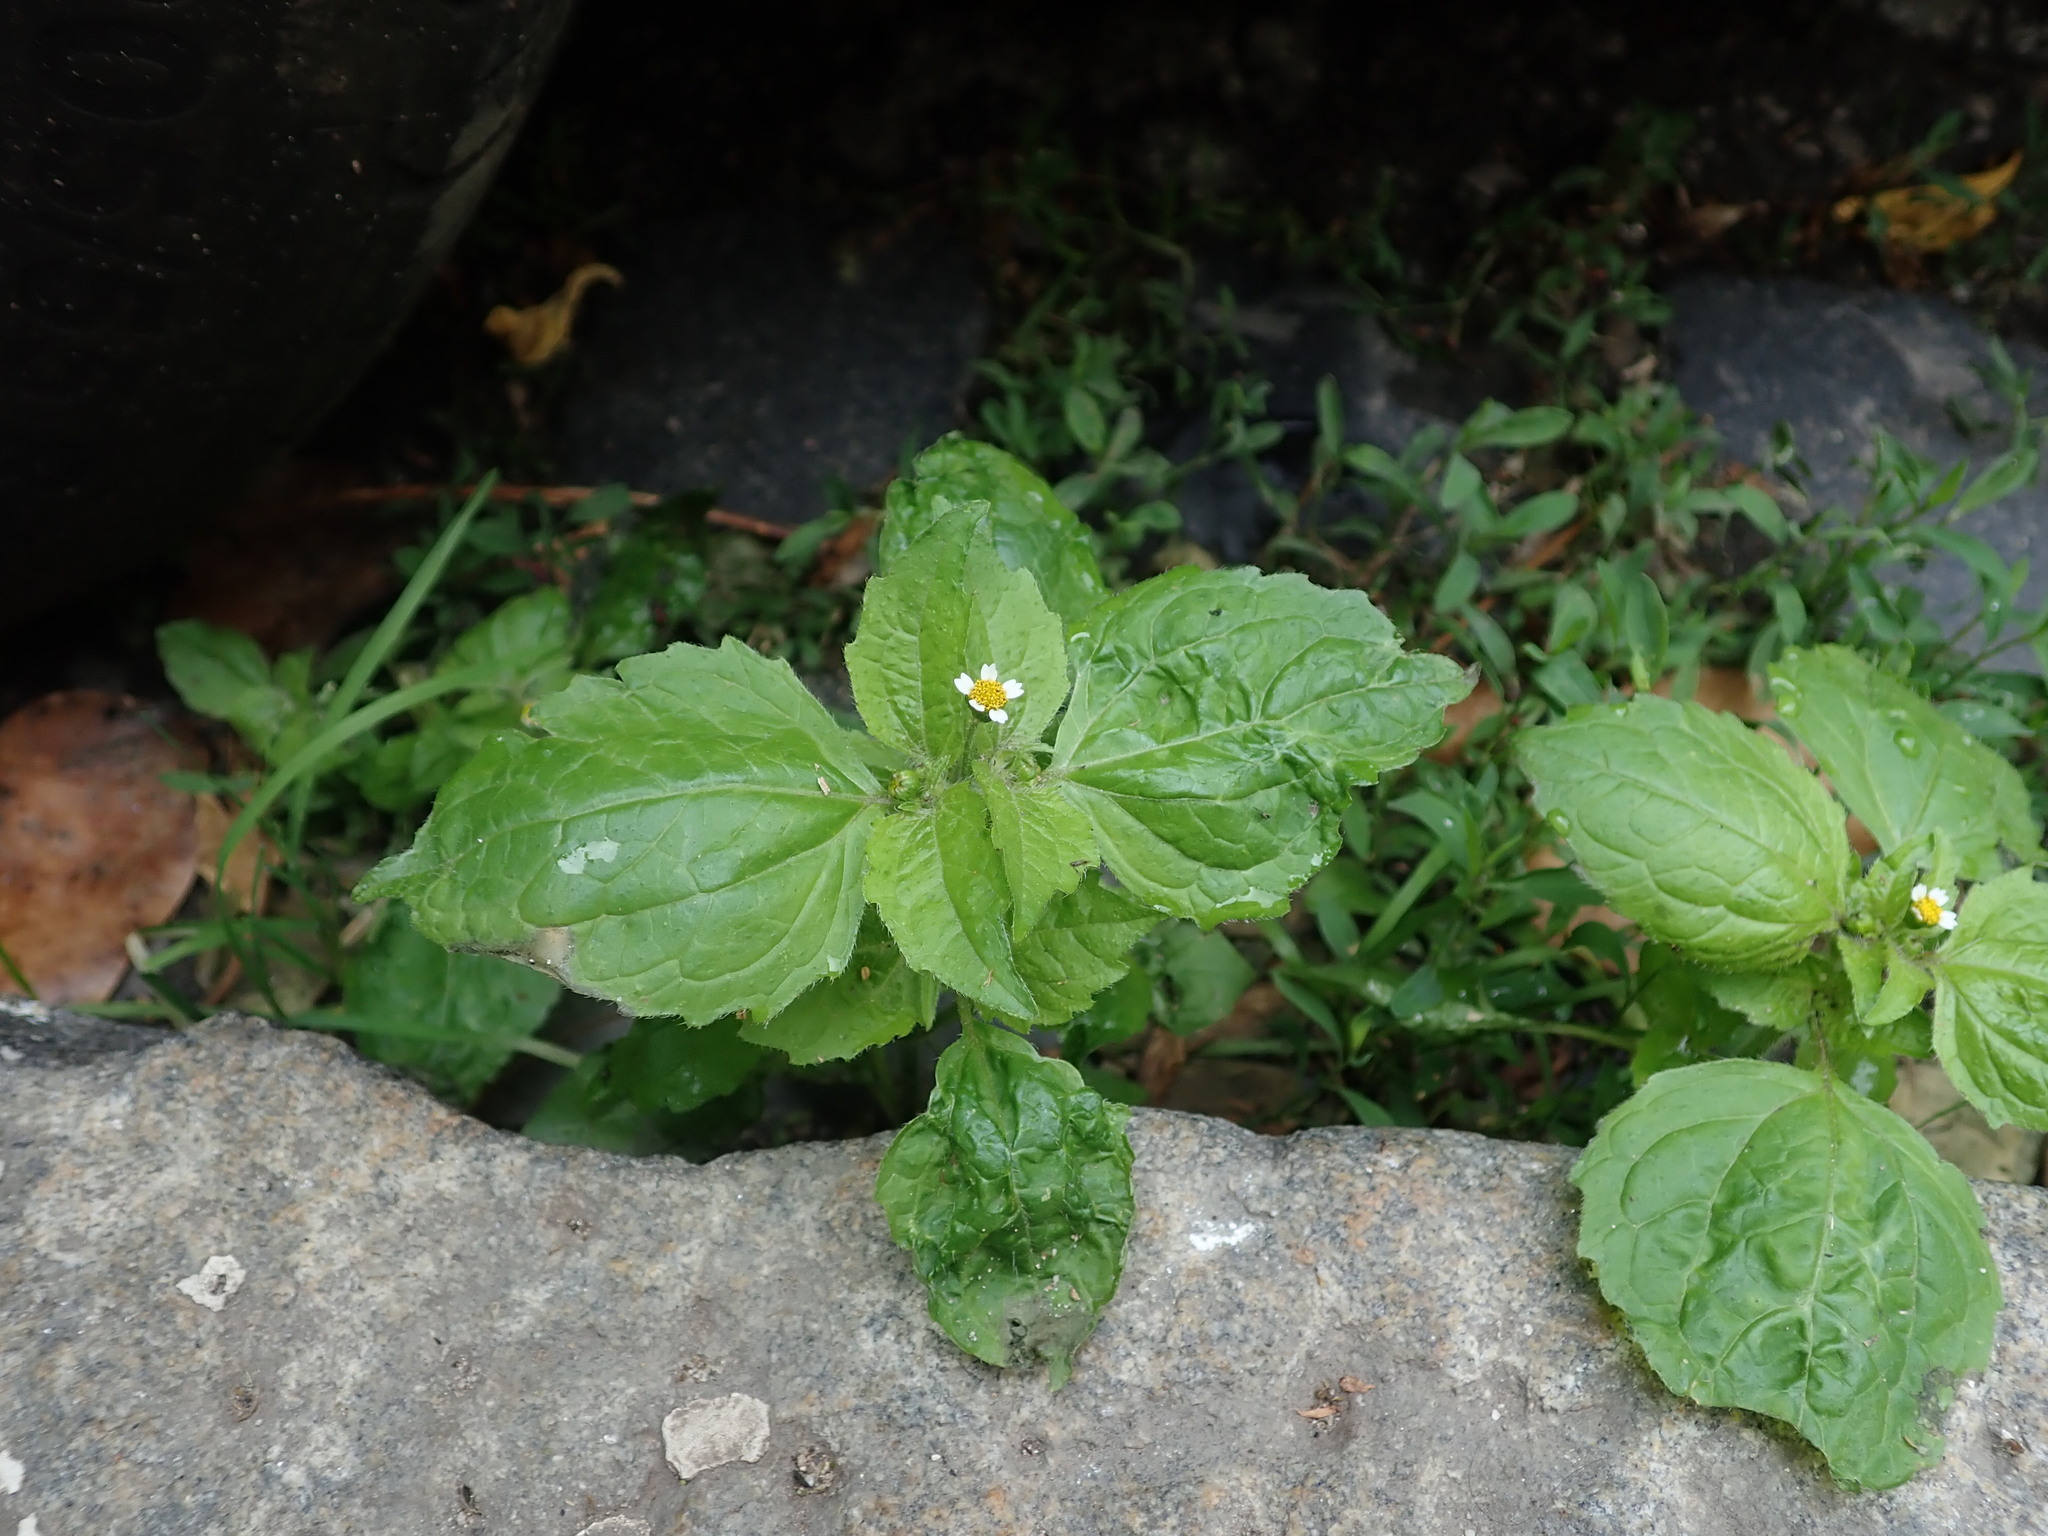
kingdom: Plantae
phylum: Tracheophyta
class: Magnoliopsida
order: Asterales
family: Asteraceae
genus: Galinsoga
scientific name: Galinsoga quadriradiata
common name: Shaggy soldier
